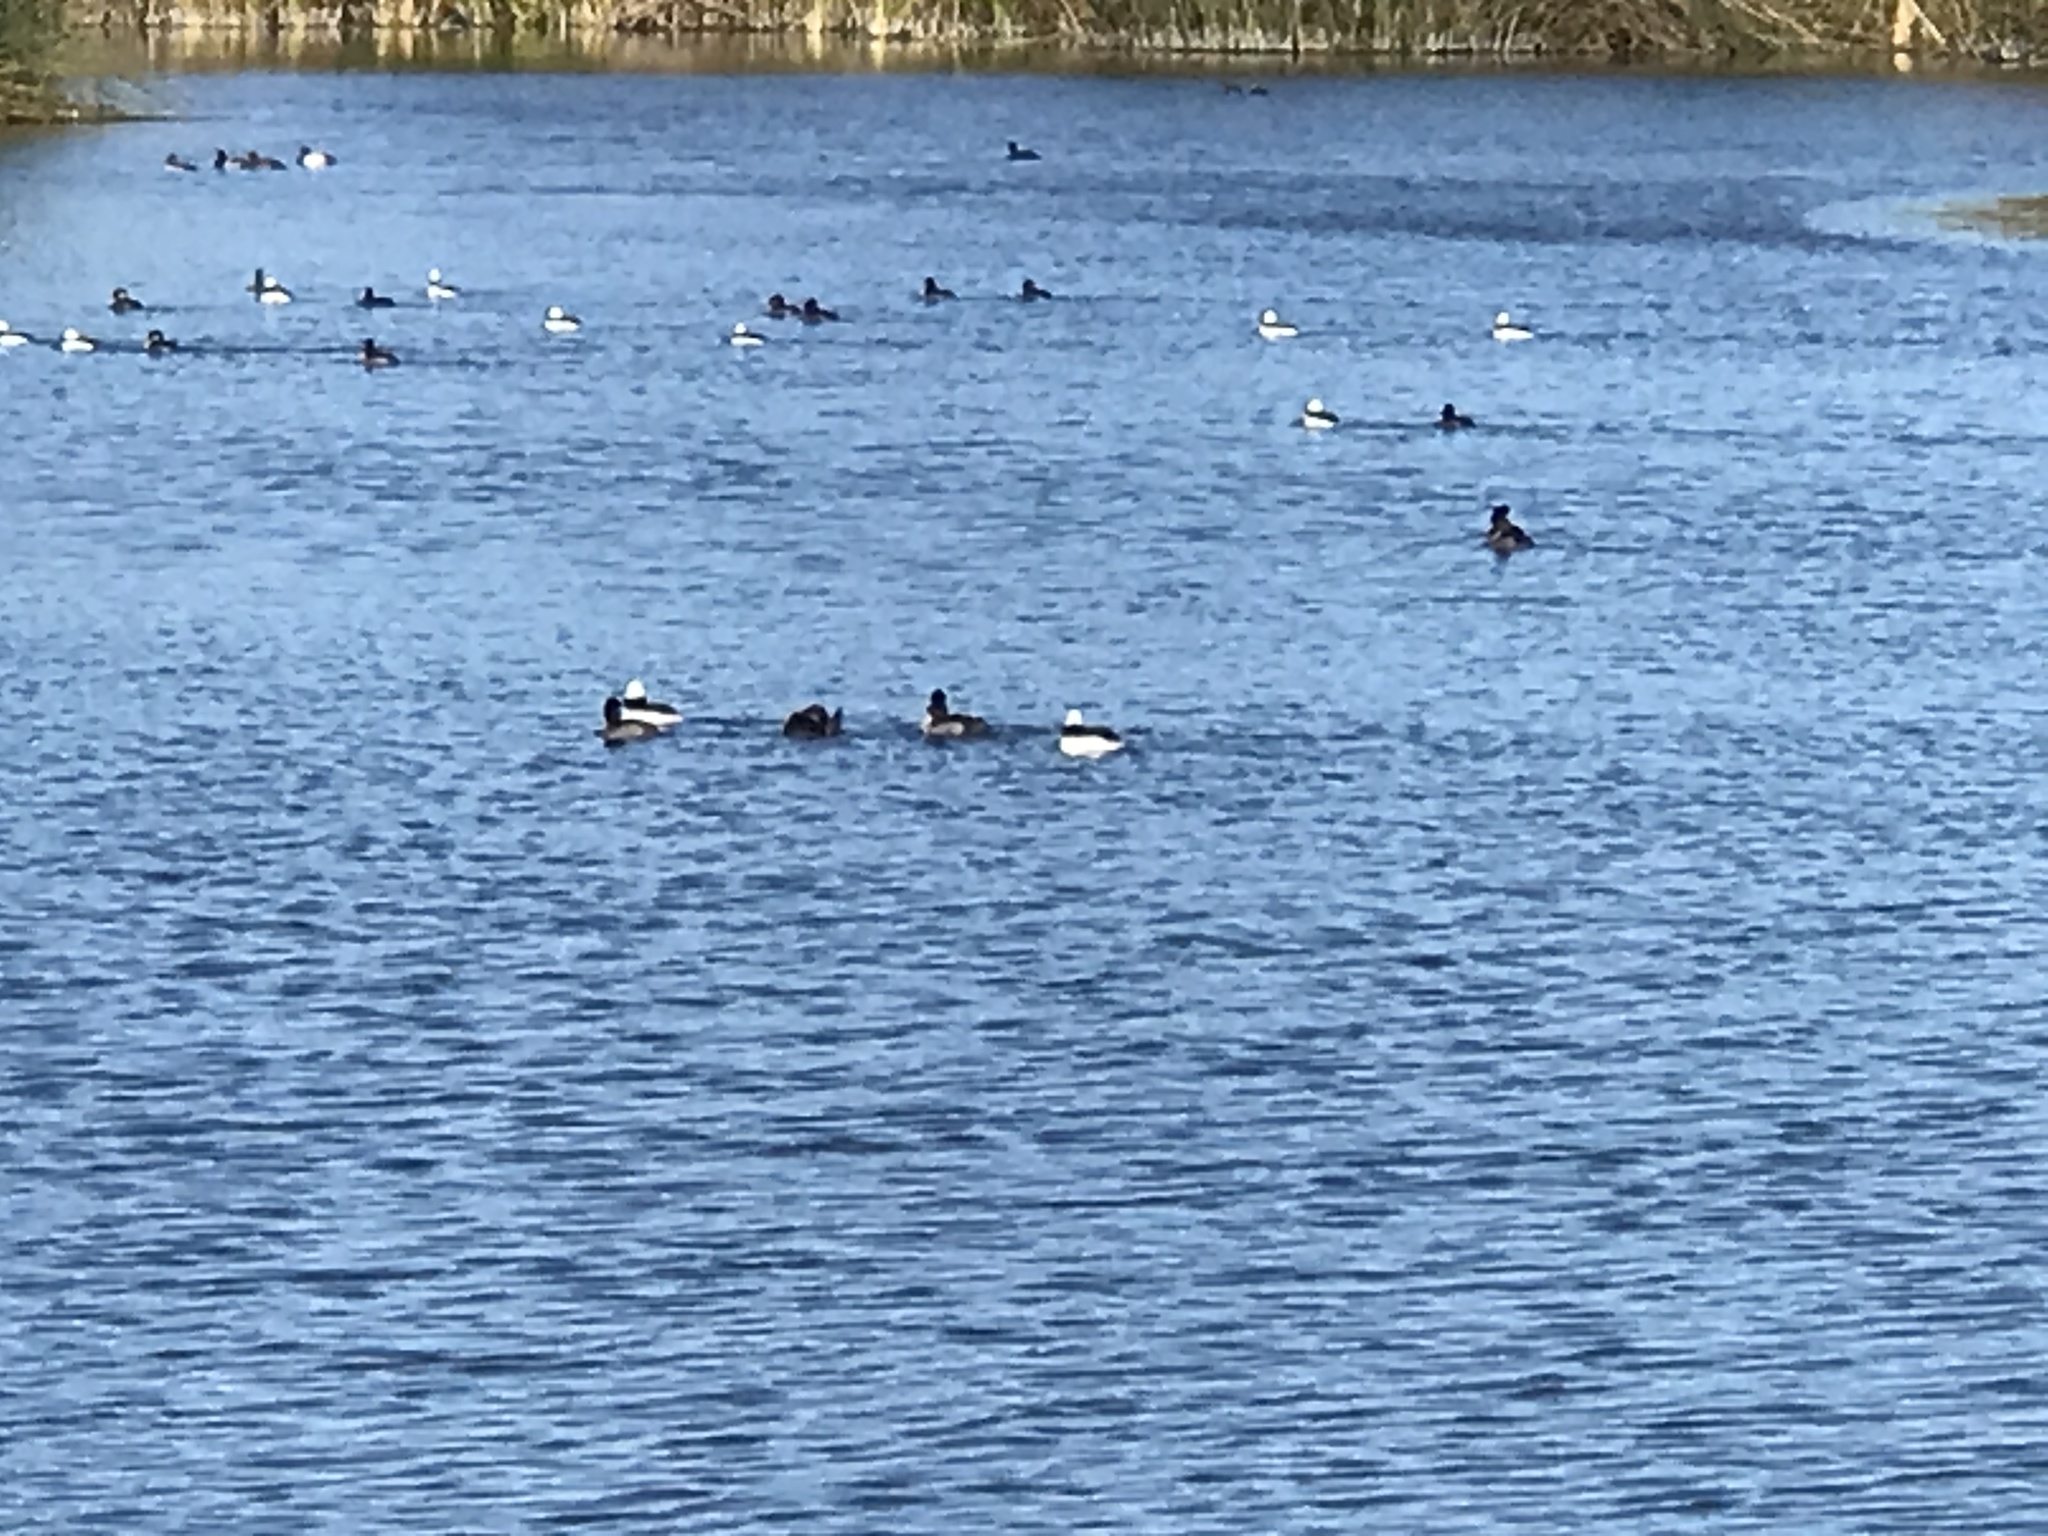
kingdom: Animalia
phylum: Chordata
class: Aves
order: Anseriformes
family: Anatidae
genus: Bucephala
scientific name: Bucephala albeola
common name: Bufflehead
